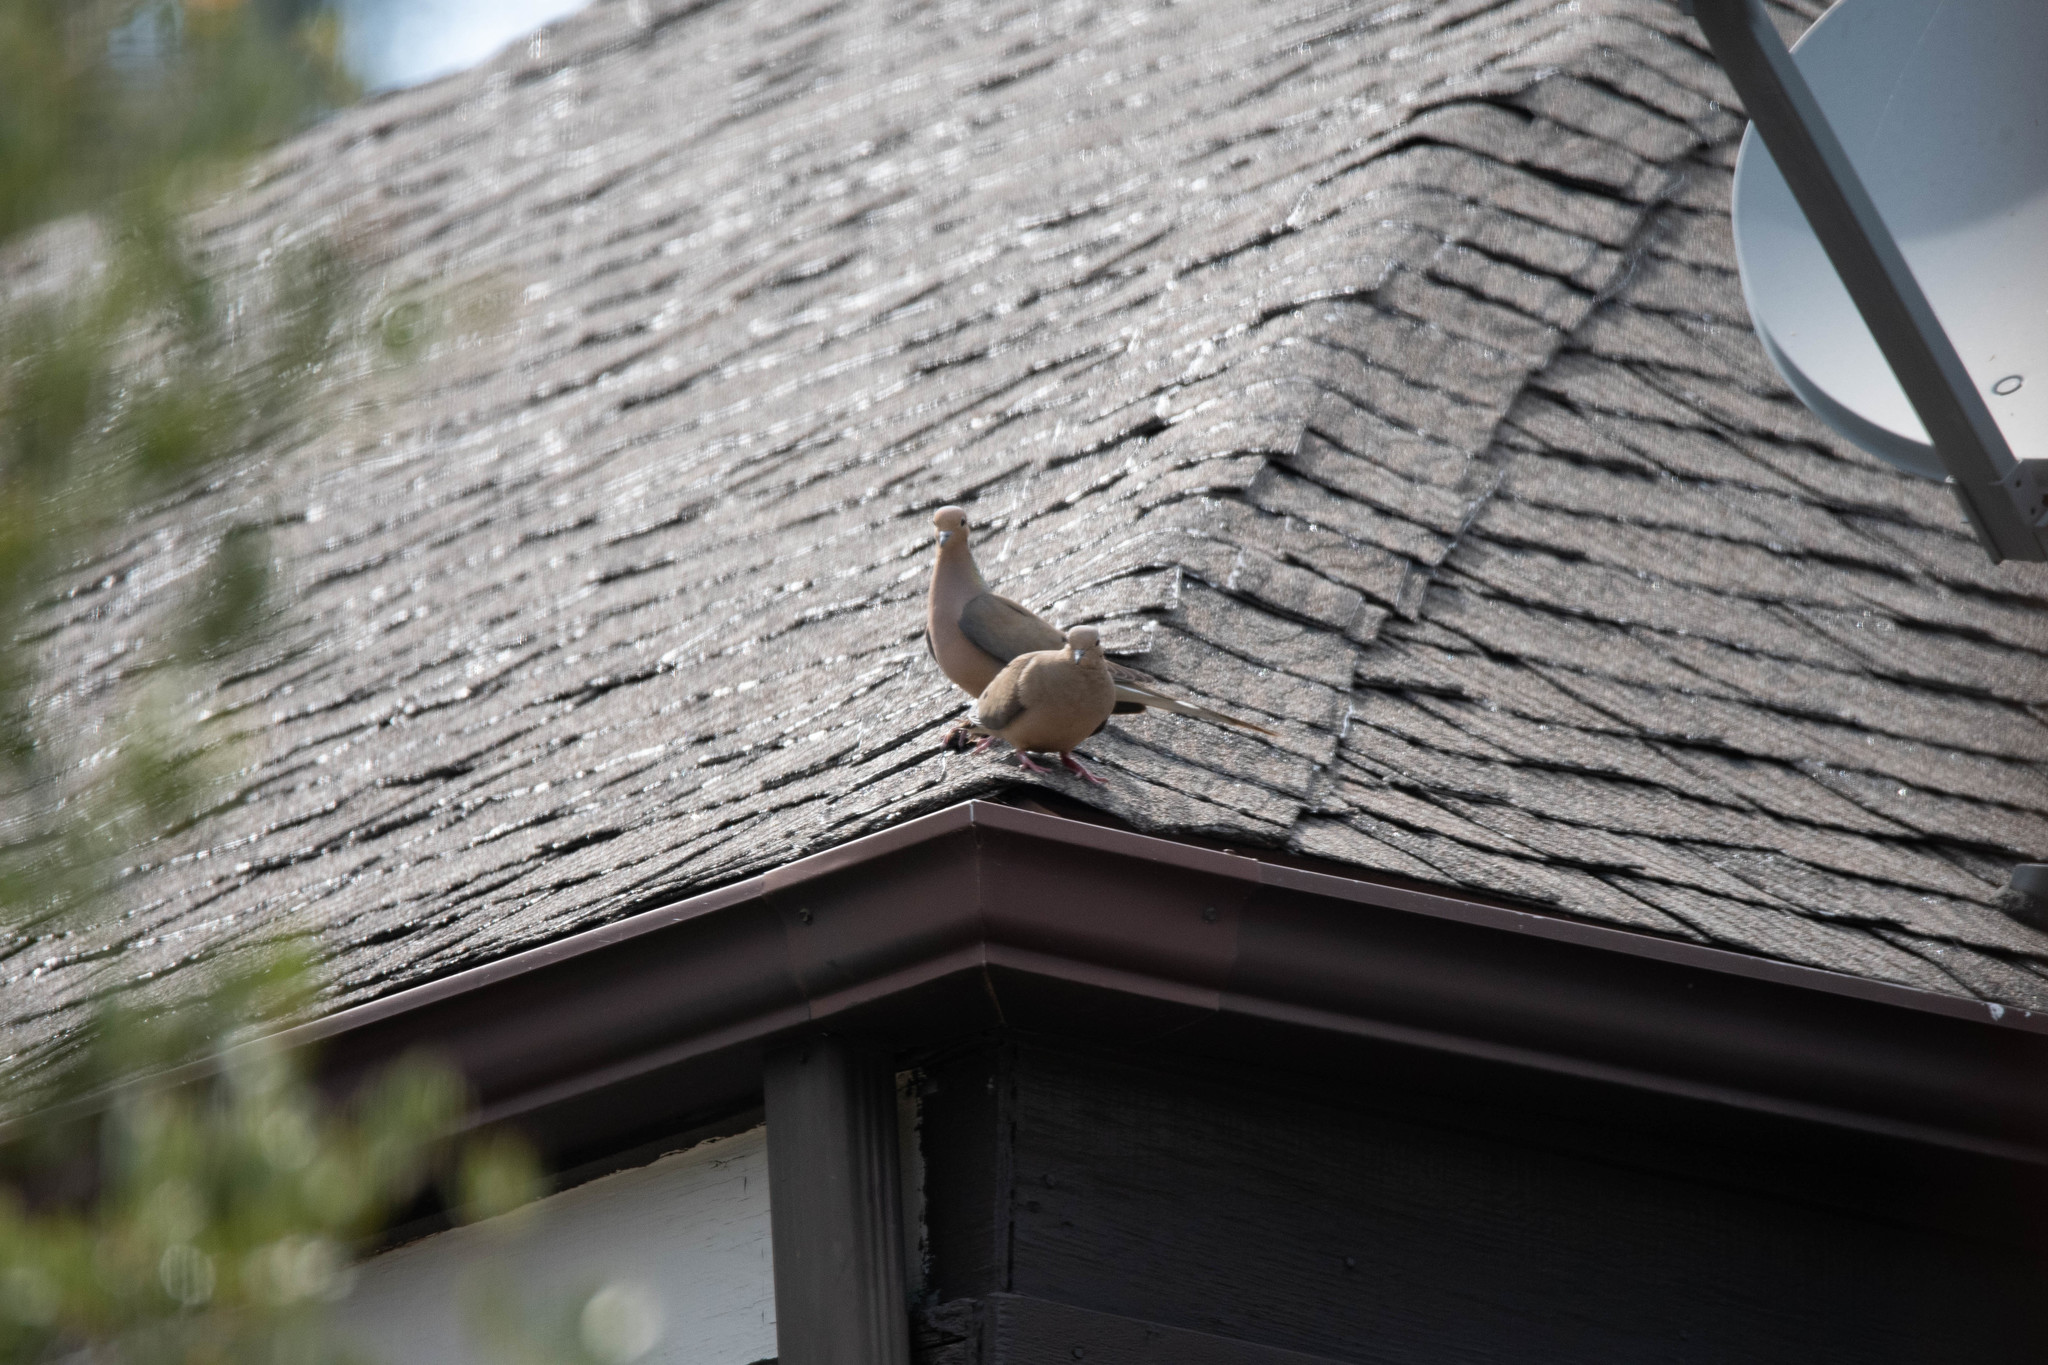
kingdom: Animalia
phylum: Chordata
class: Aves
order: Columbiformes
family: Columbidae
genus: Zenaida
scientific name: Zenaida macroura
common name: Mourning dove
